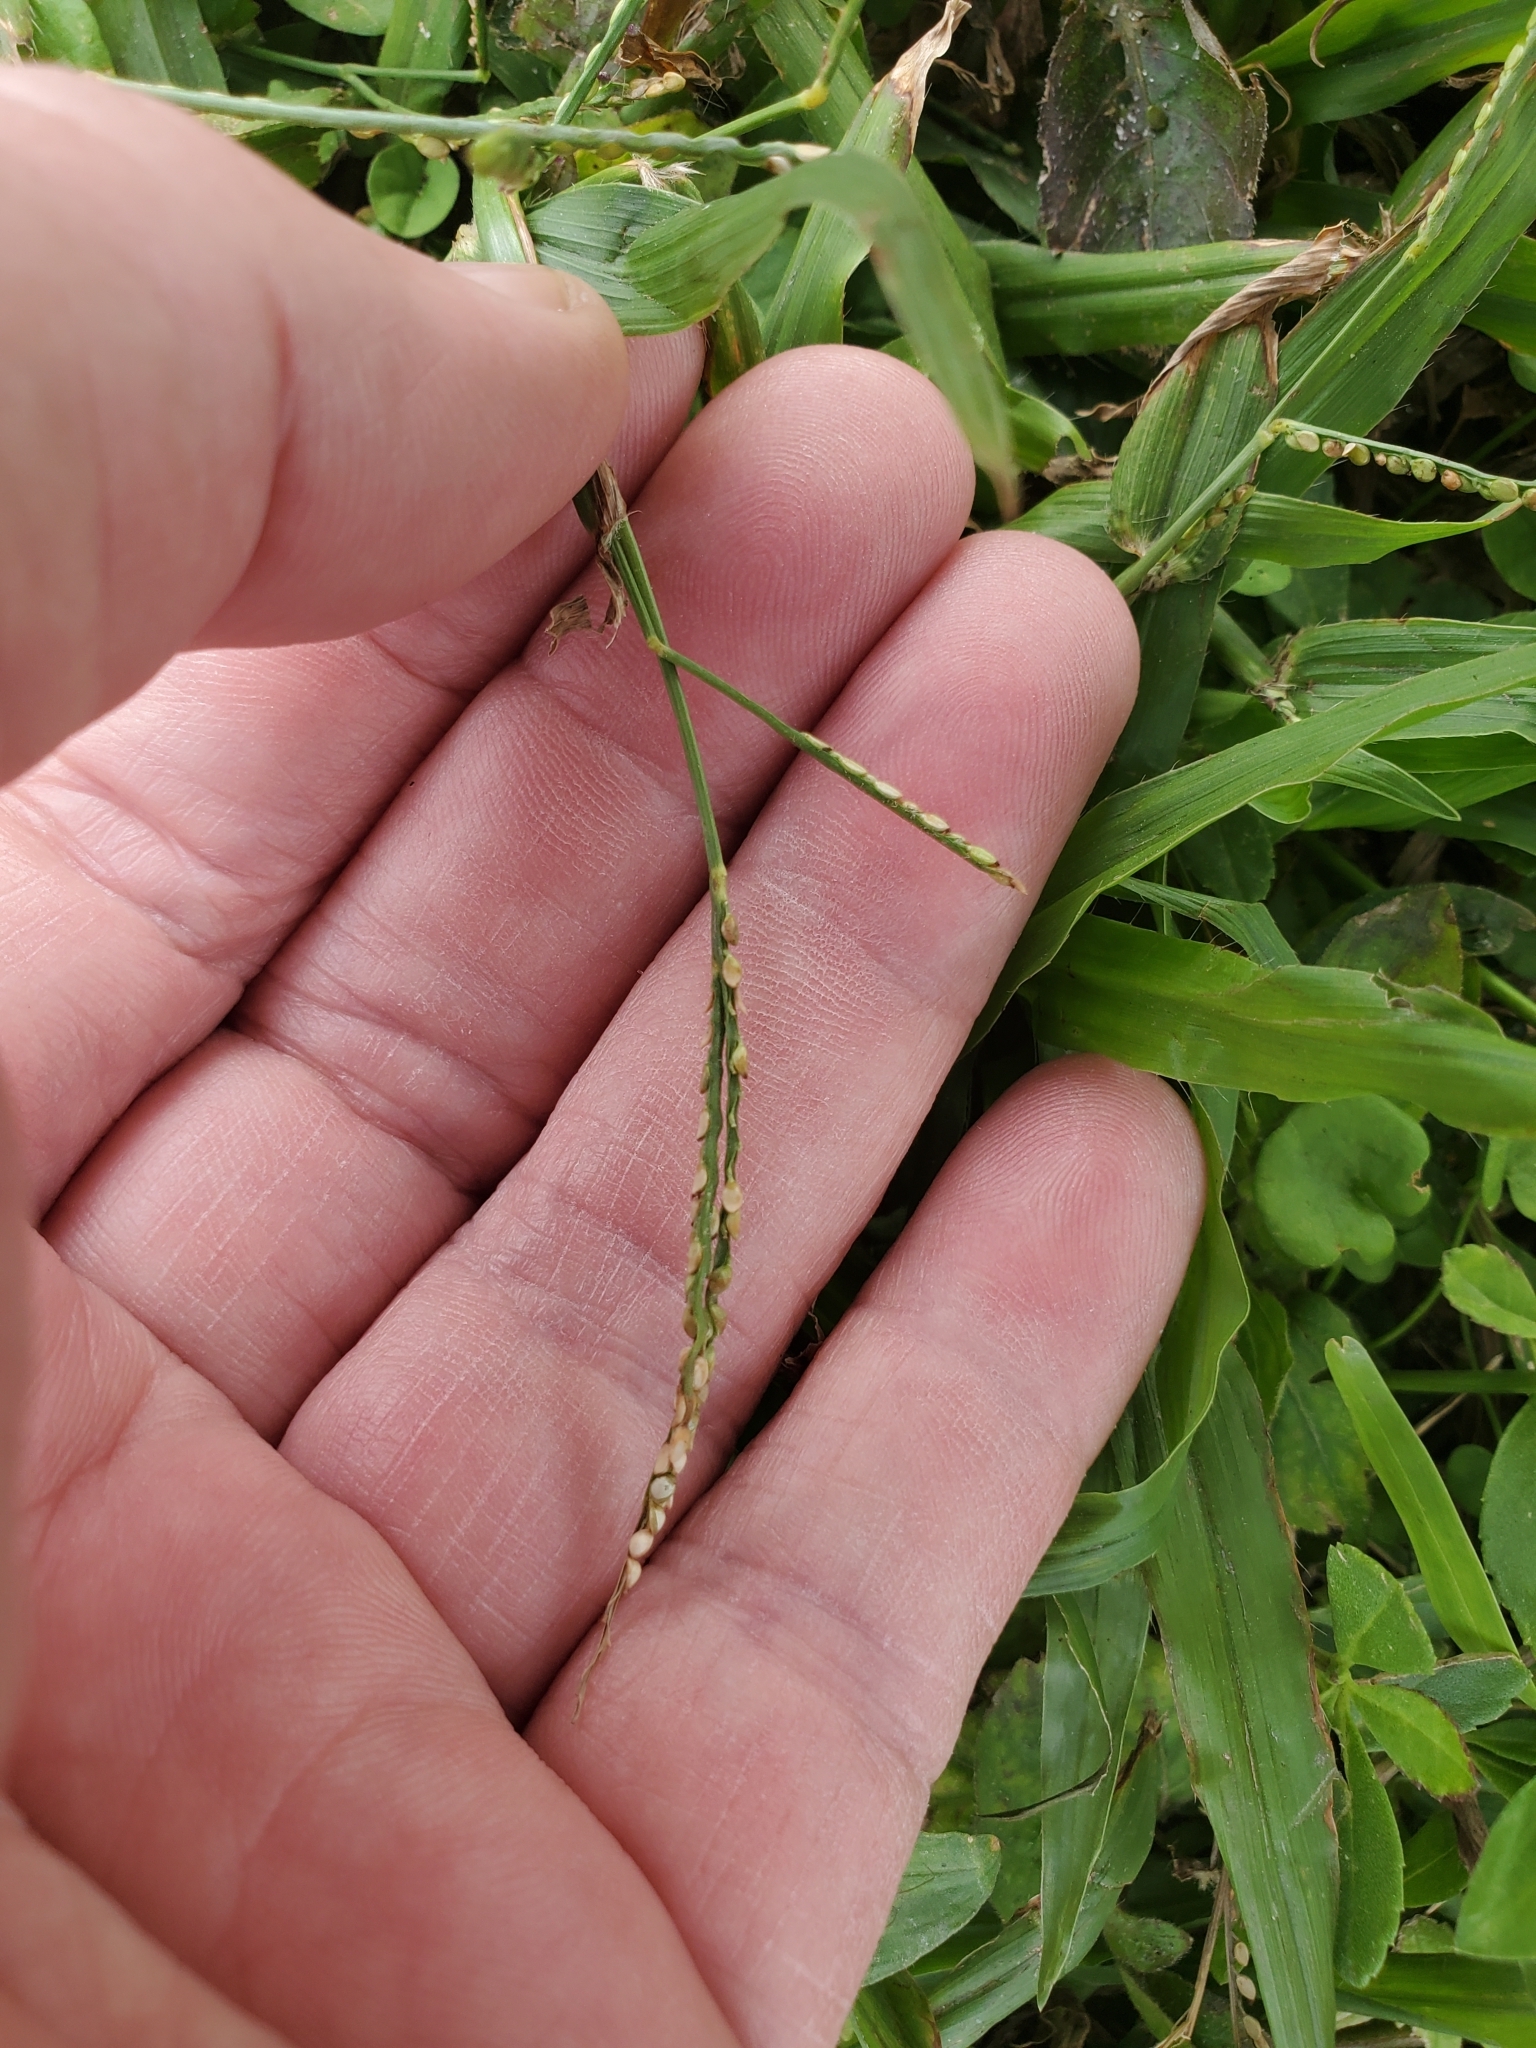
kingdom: Plantae
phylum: Tracheophyta
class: Liliopsida
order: Poales
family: Poaceae
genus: Paspalum
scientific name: Paspalum setaceum
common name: Slender paspalum
